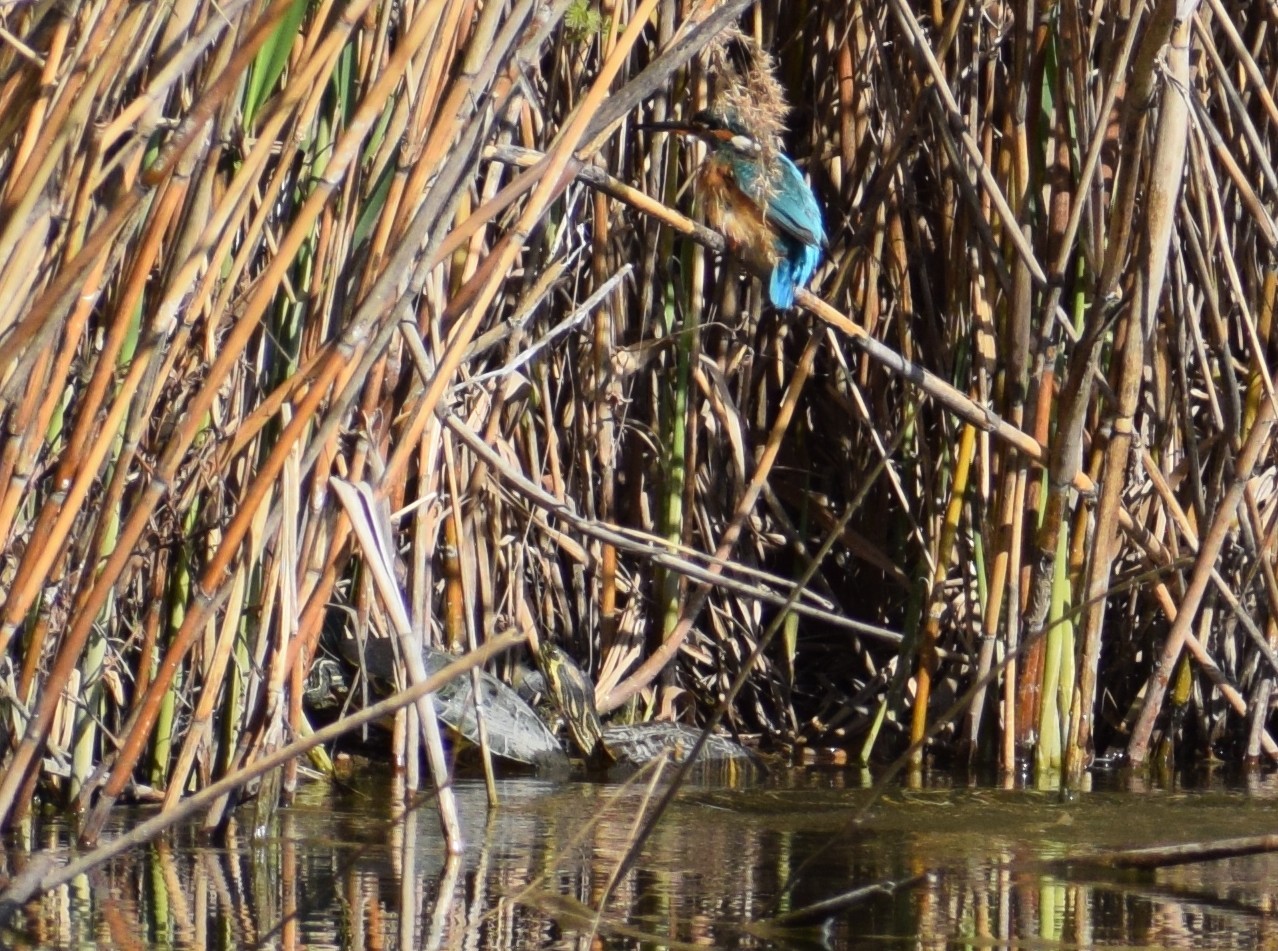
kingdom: Animalia
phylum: Chordata
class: Aves
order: Coraciiformes
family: Alcedinidae
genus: Alcedo
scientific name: Alcedo atthis
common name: Common kingfisher
